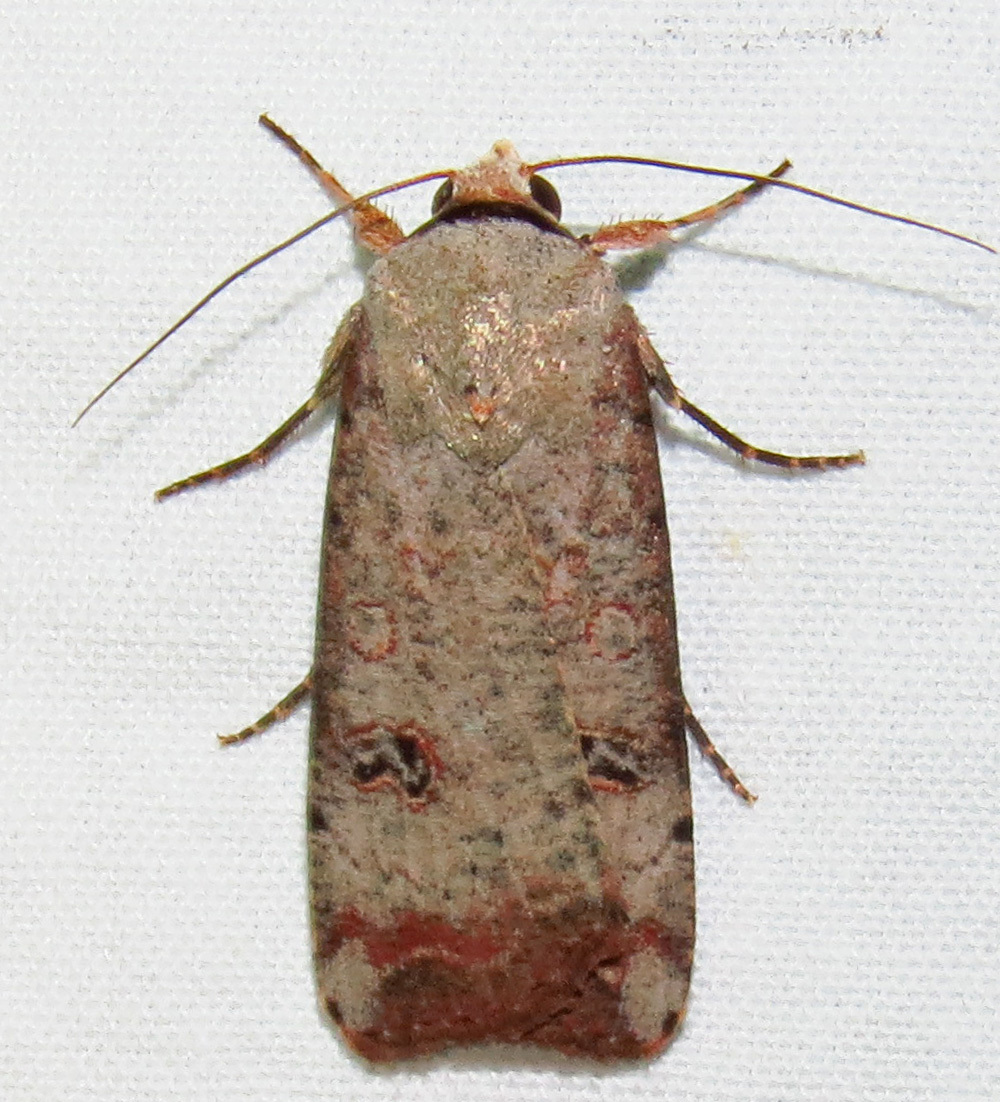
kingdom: Animalia
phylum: Arthropoda
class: Insecta
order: Lepidoptera
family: Noctuidae
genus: Anicla
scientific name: Anicla infecta
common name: Green cutworm
